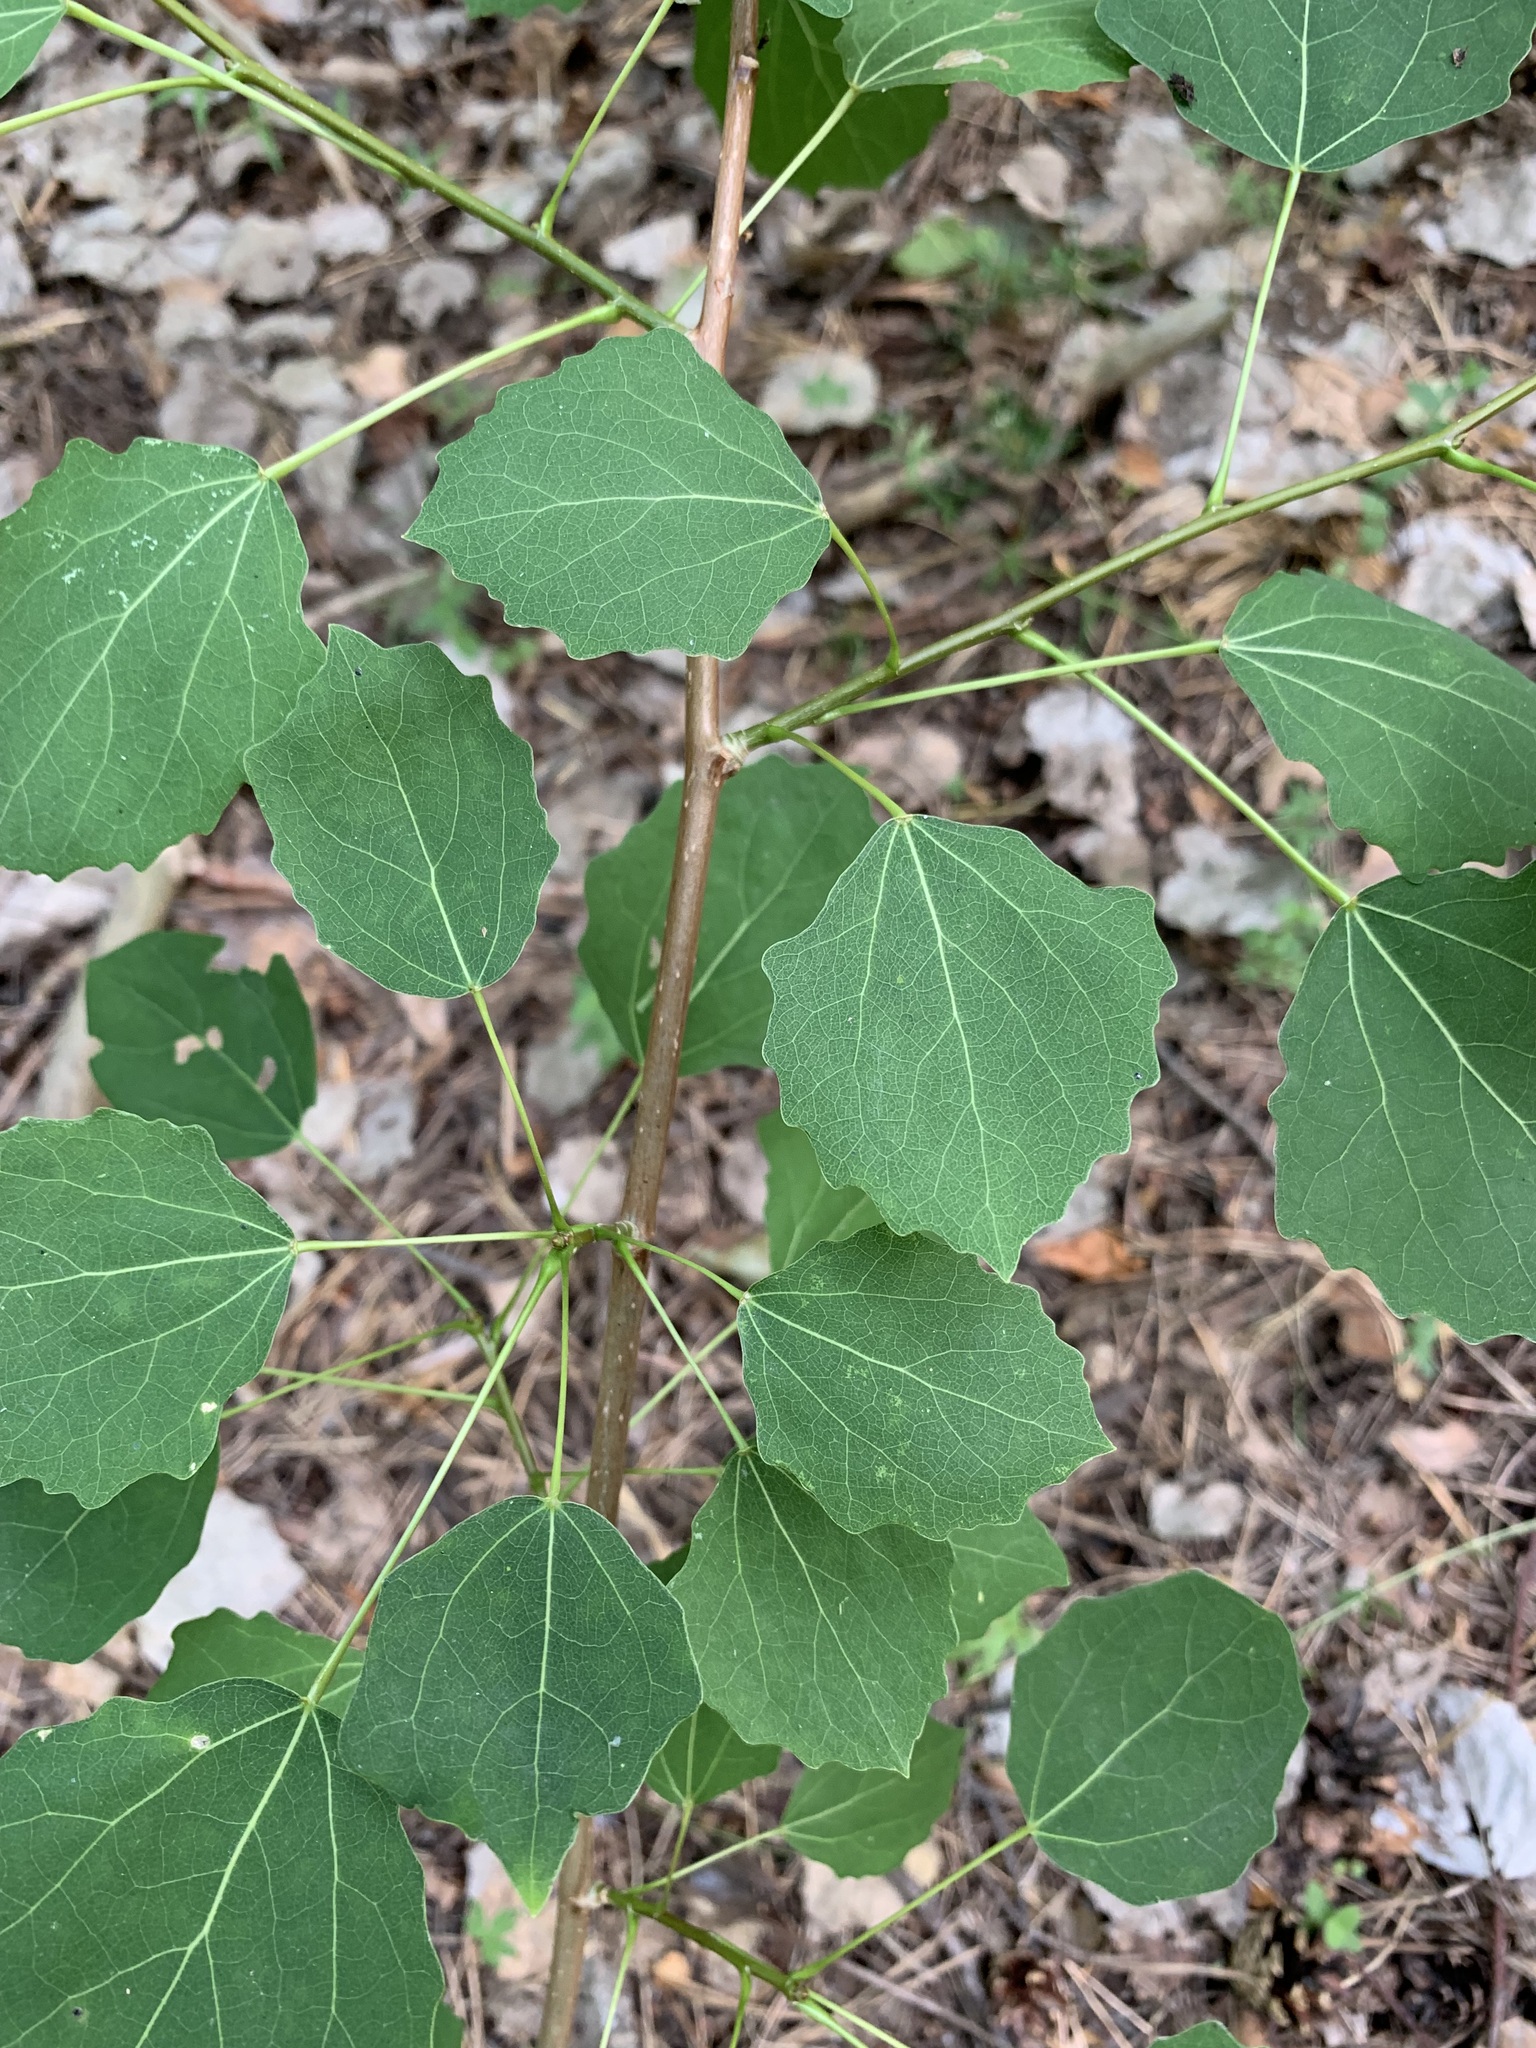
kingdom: Plantae
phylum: Tracheophyta
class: Magnoliopsida
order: Malpighiales
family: Salicaceae
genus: Populus
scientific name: Populus tremula
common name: European aspen
